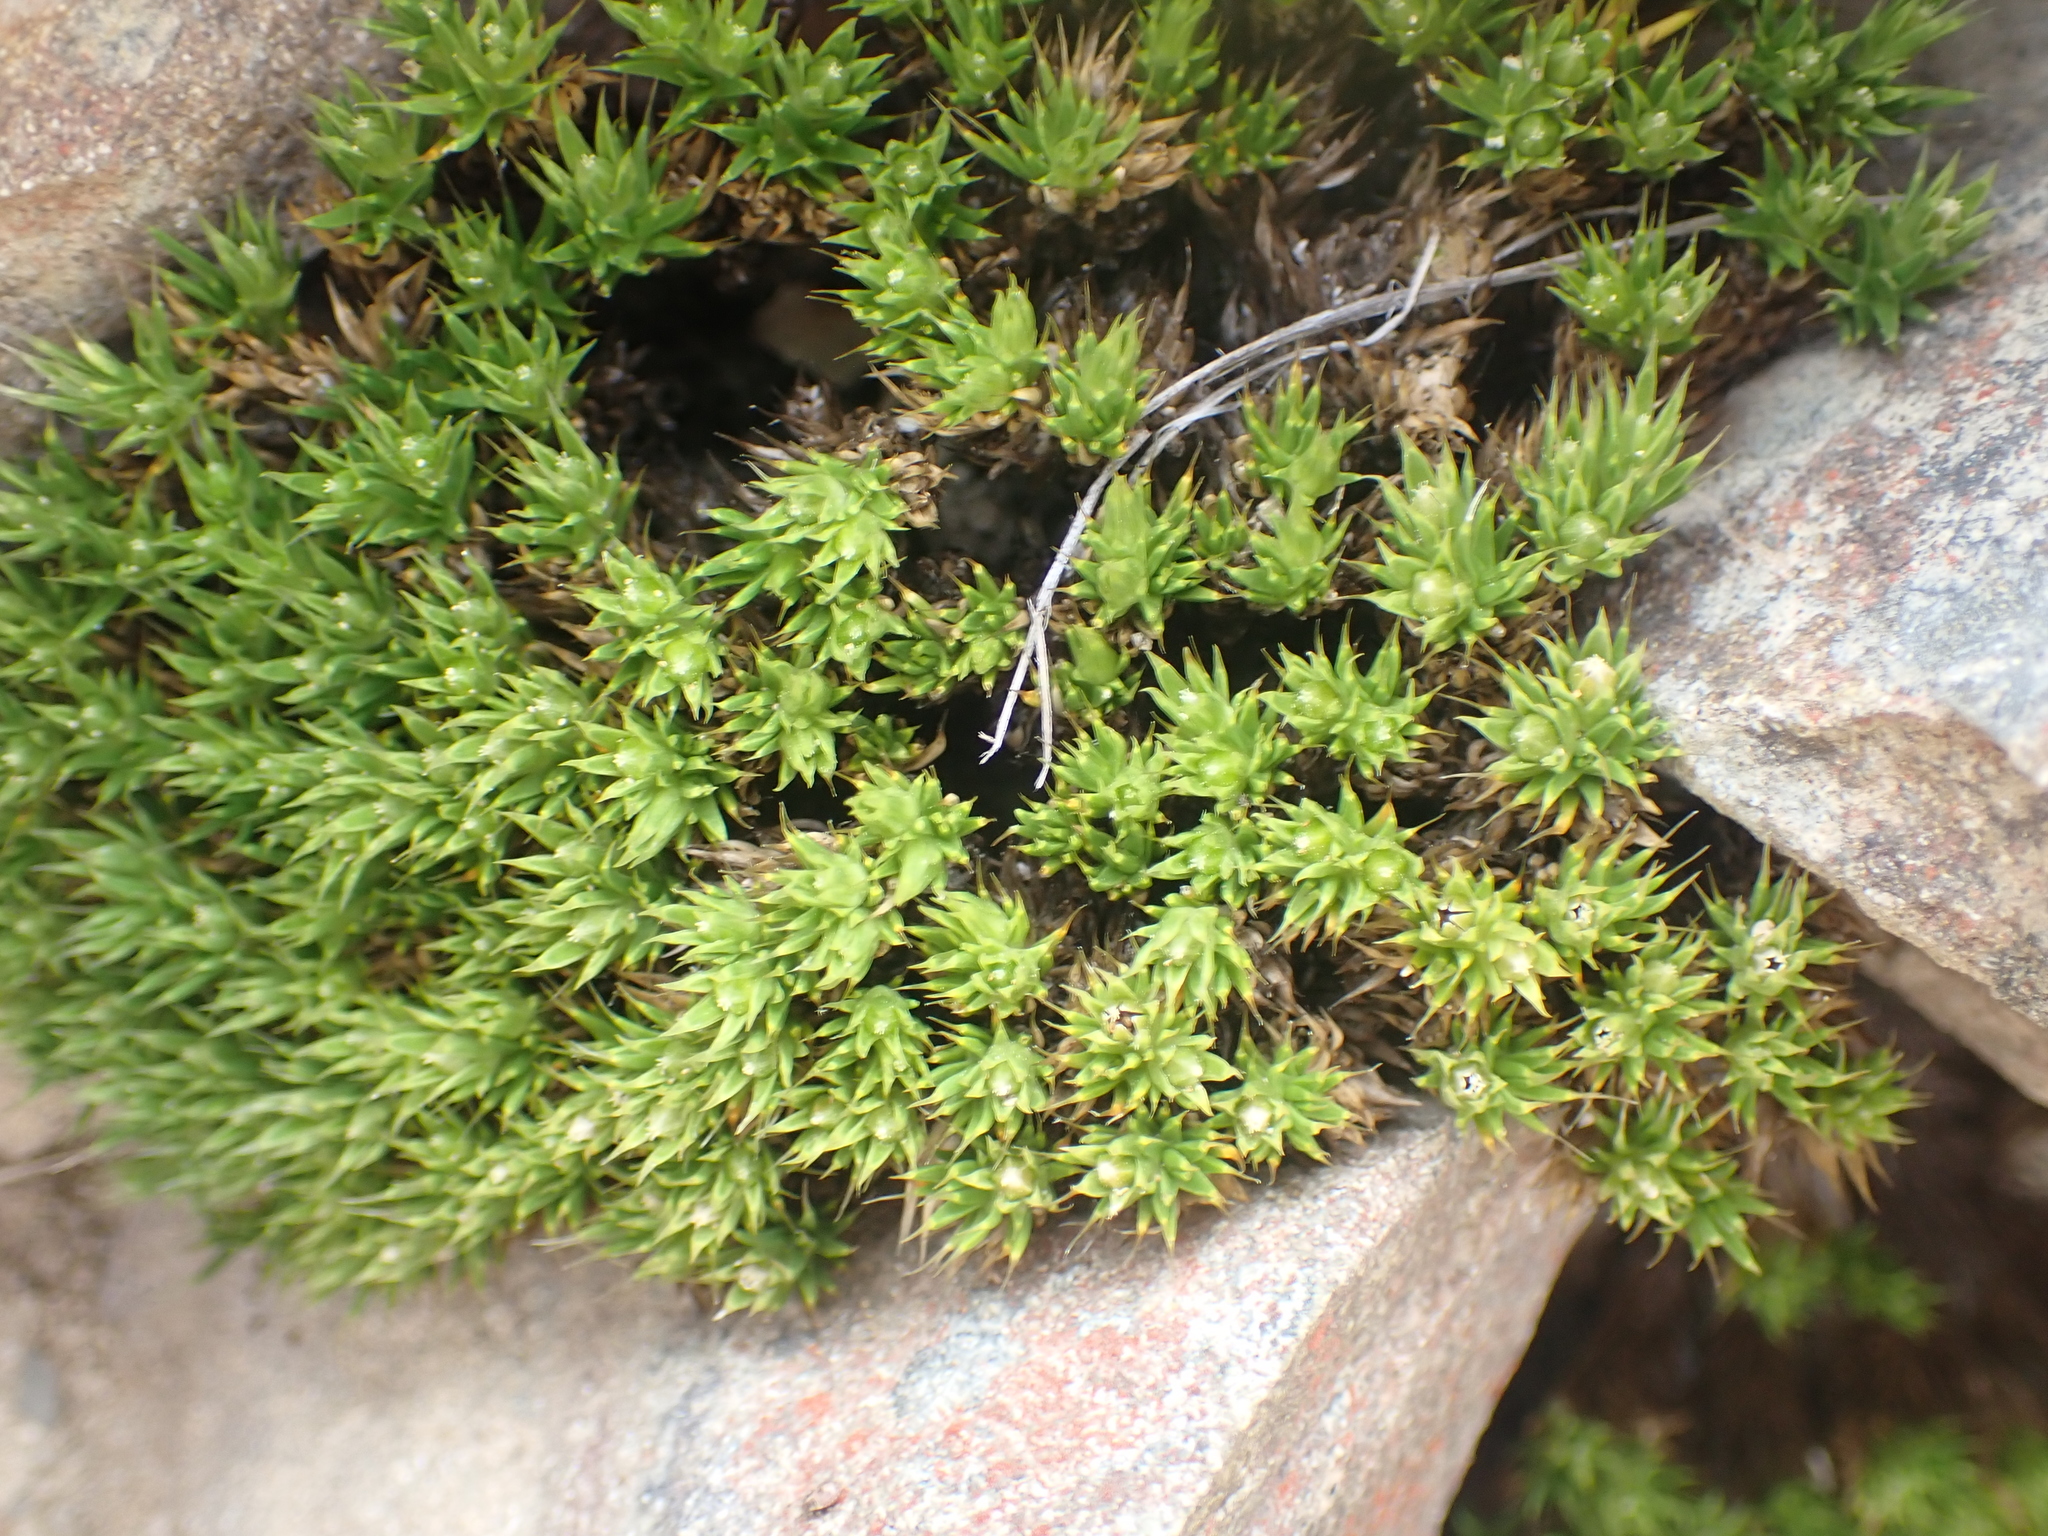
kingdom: Plantae
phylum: Tracheophyta
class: Magnoliopsida
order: Caryophyllales
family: Caryophyllaceae
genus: Colobanthus
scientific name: Colobanthus acicularis
